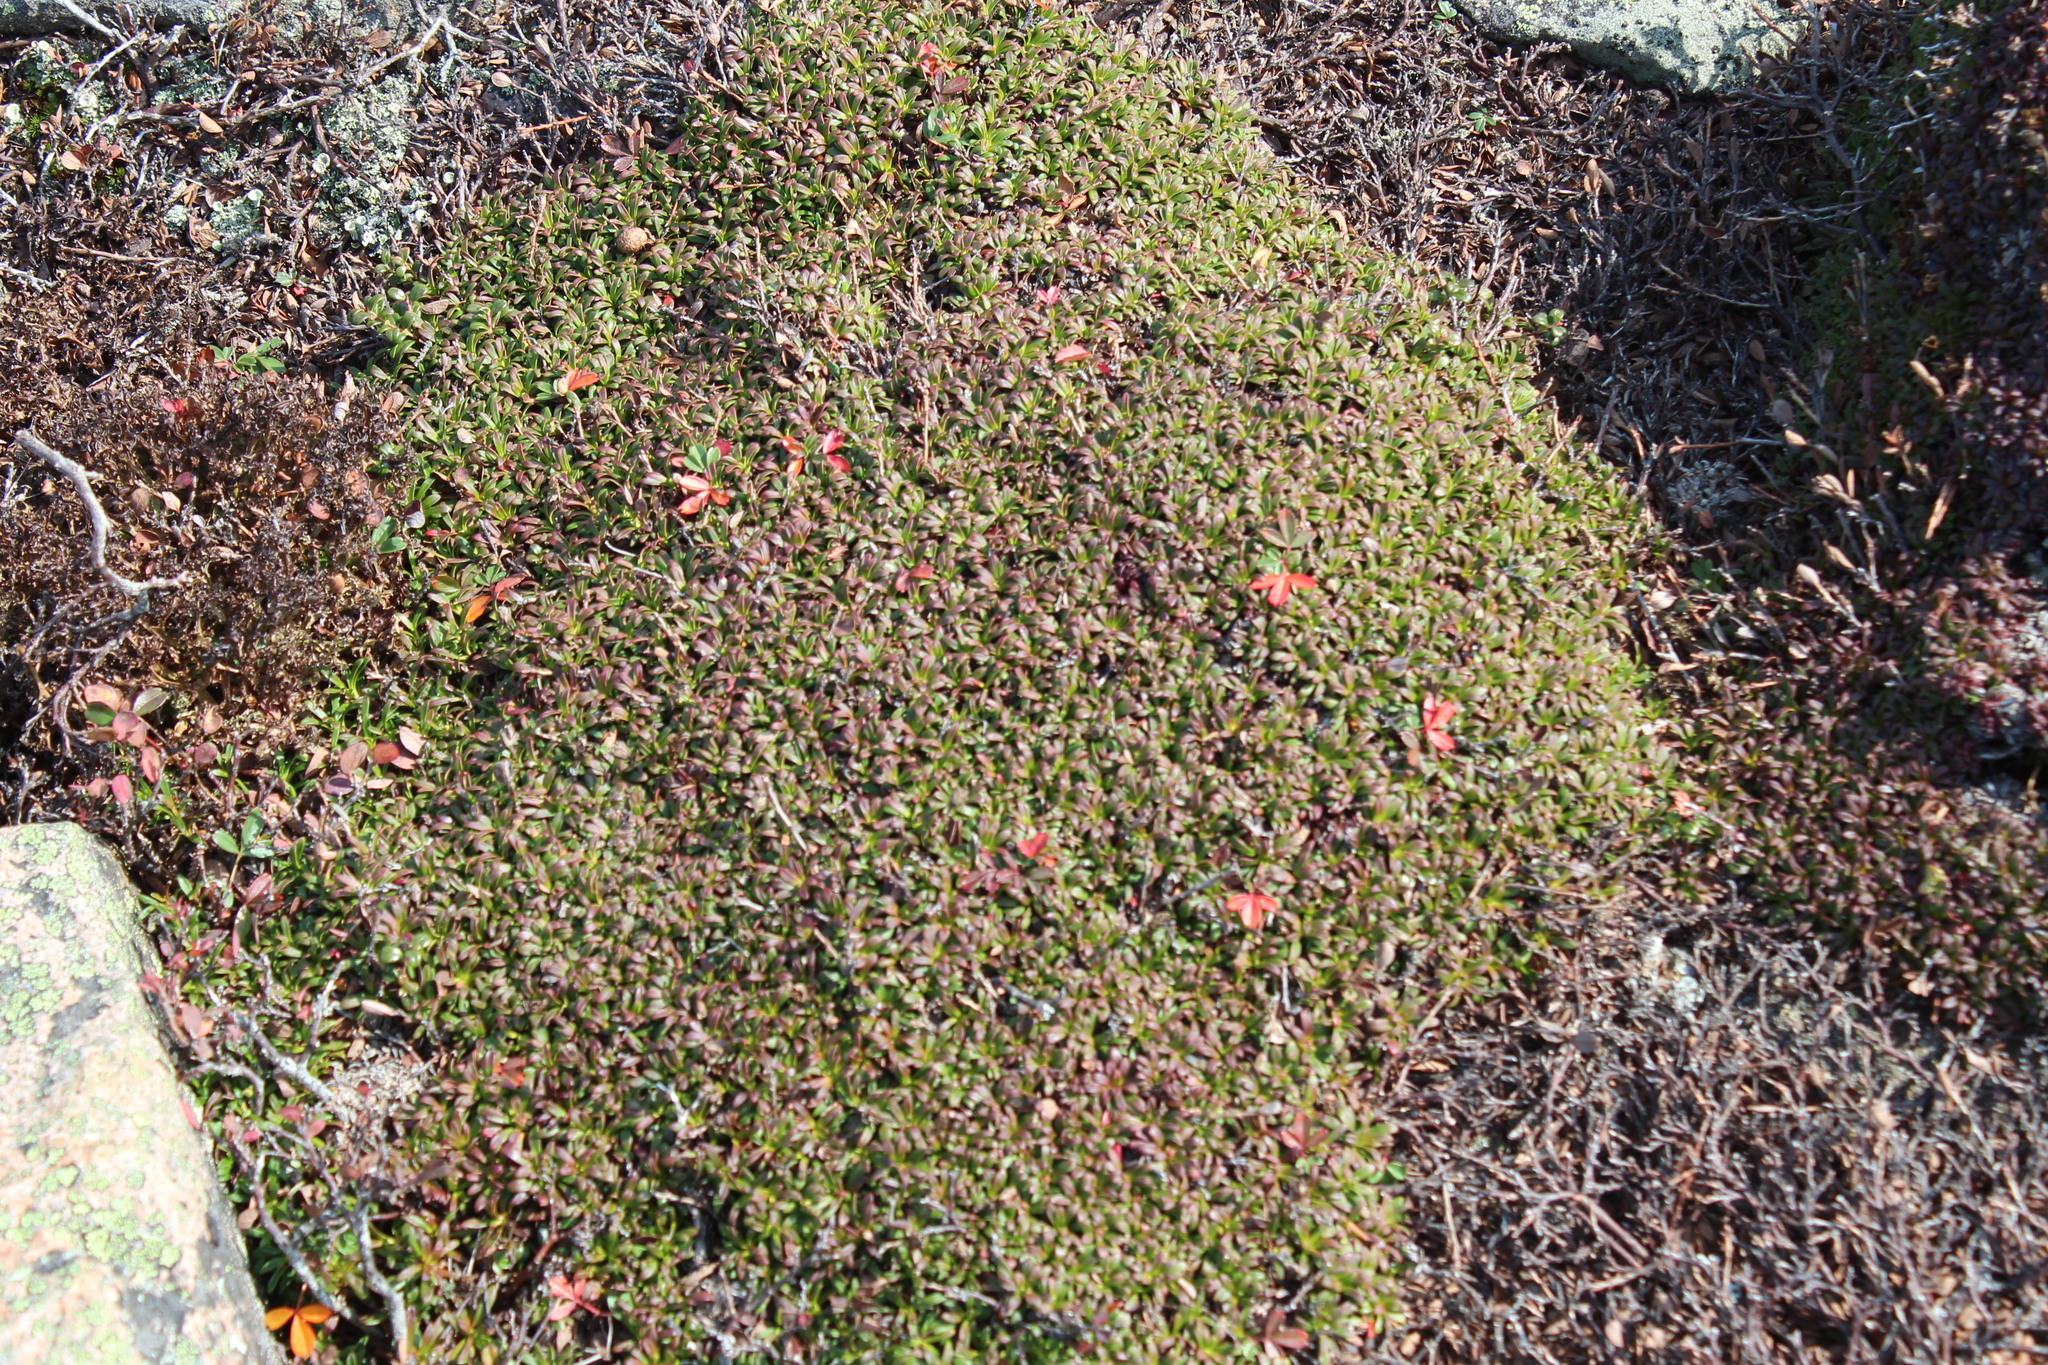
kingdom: Plantae
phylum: Tracheophyta
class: Magnoliopsida
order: Ericales
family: Diapensiaceae
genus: Diapensia
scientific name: Diapensia lapponica
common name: Diapensia
